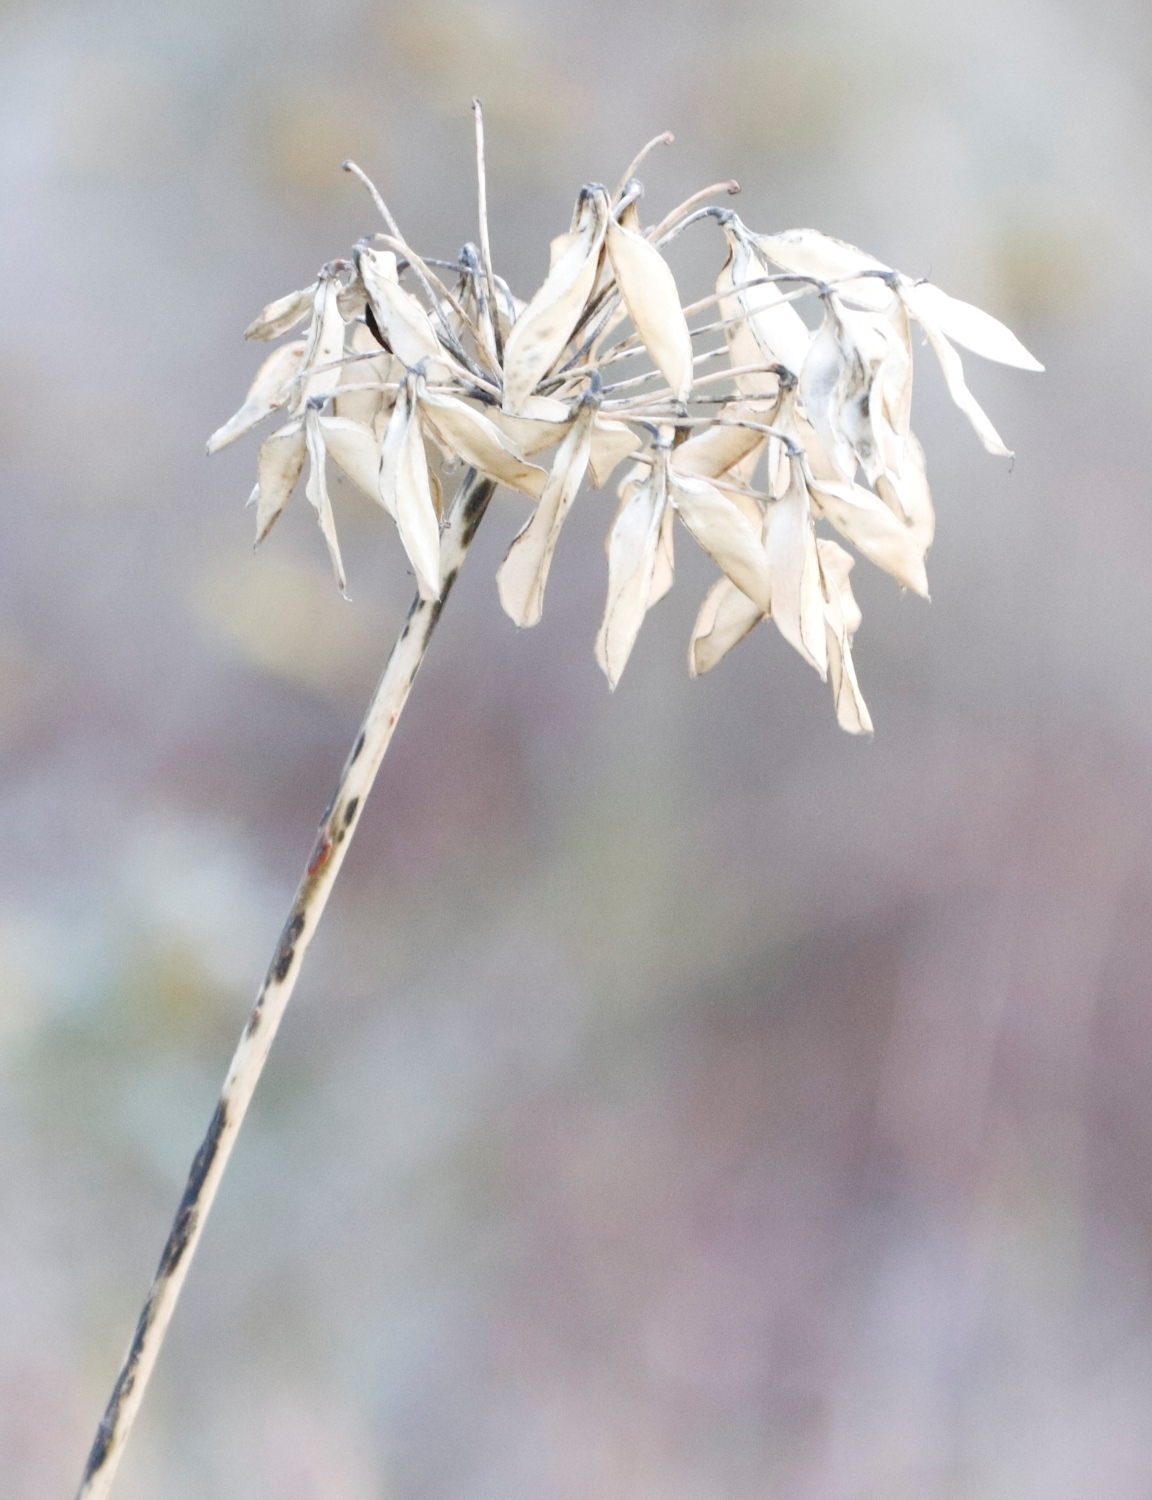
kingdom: Plantae
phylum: Tracheophyta
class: Liliopsida
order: Asparagales
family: Amaryllidaceae
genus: Agapanthus
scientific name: Agapanthus campanulatus
